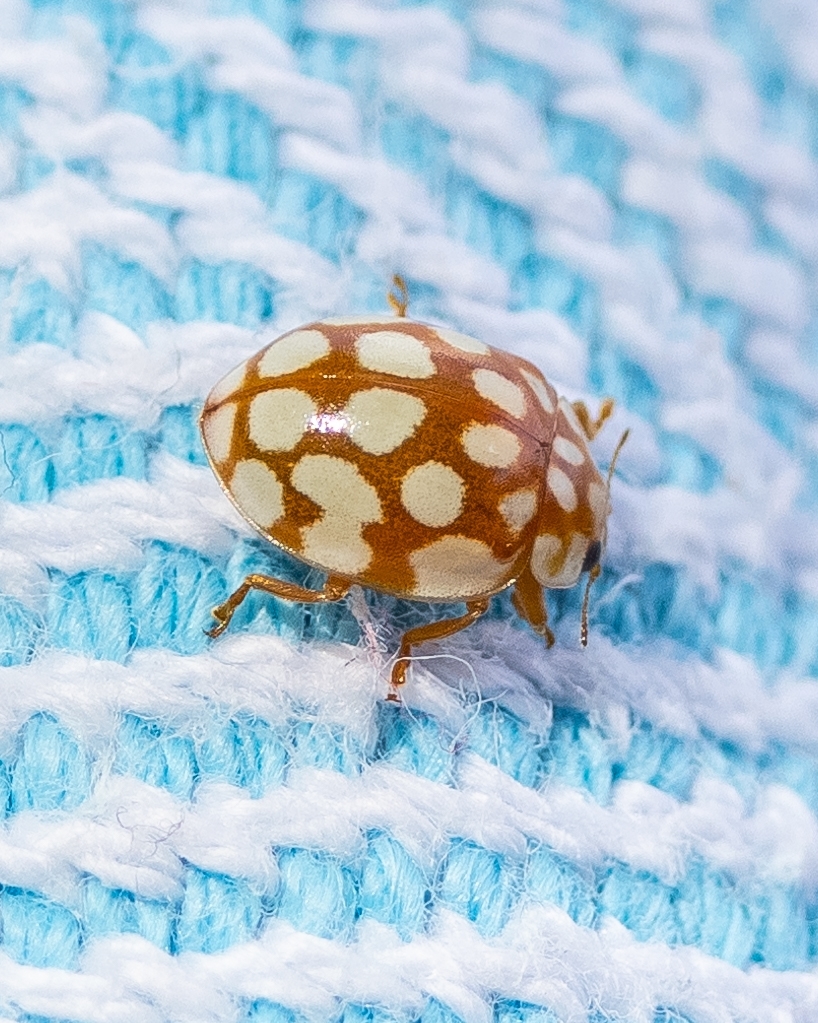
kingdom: Animalia
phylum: Arthropoda
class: Insecta
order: Coleoptera
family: Coccinellidae
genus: Sospita
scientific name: Sospita vigintiguttata
